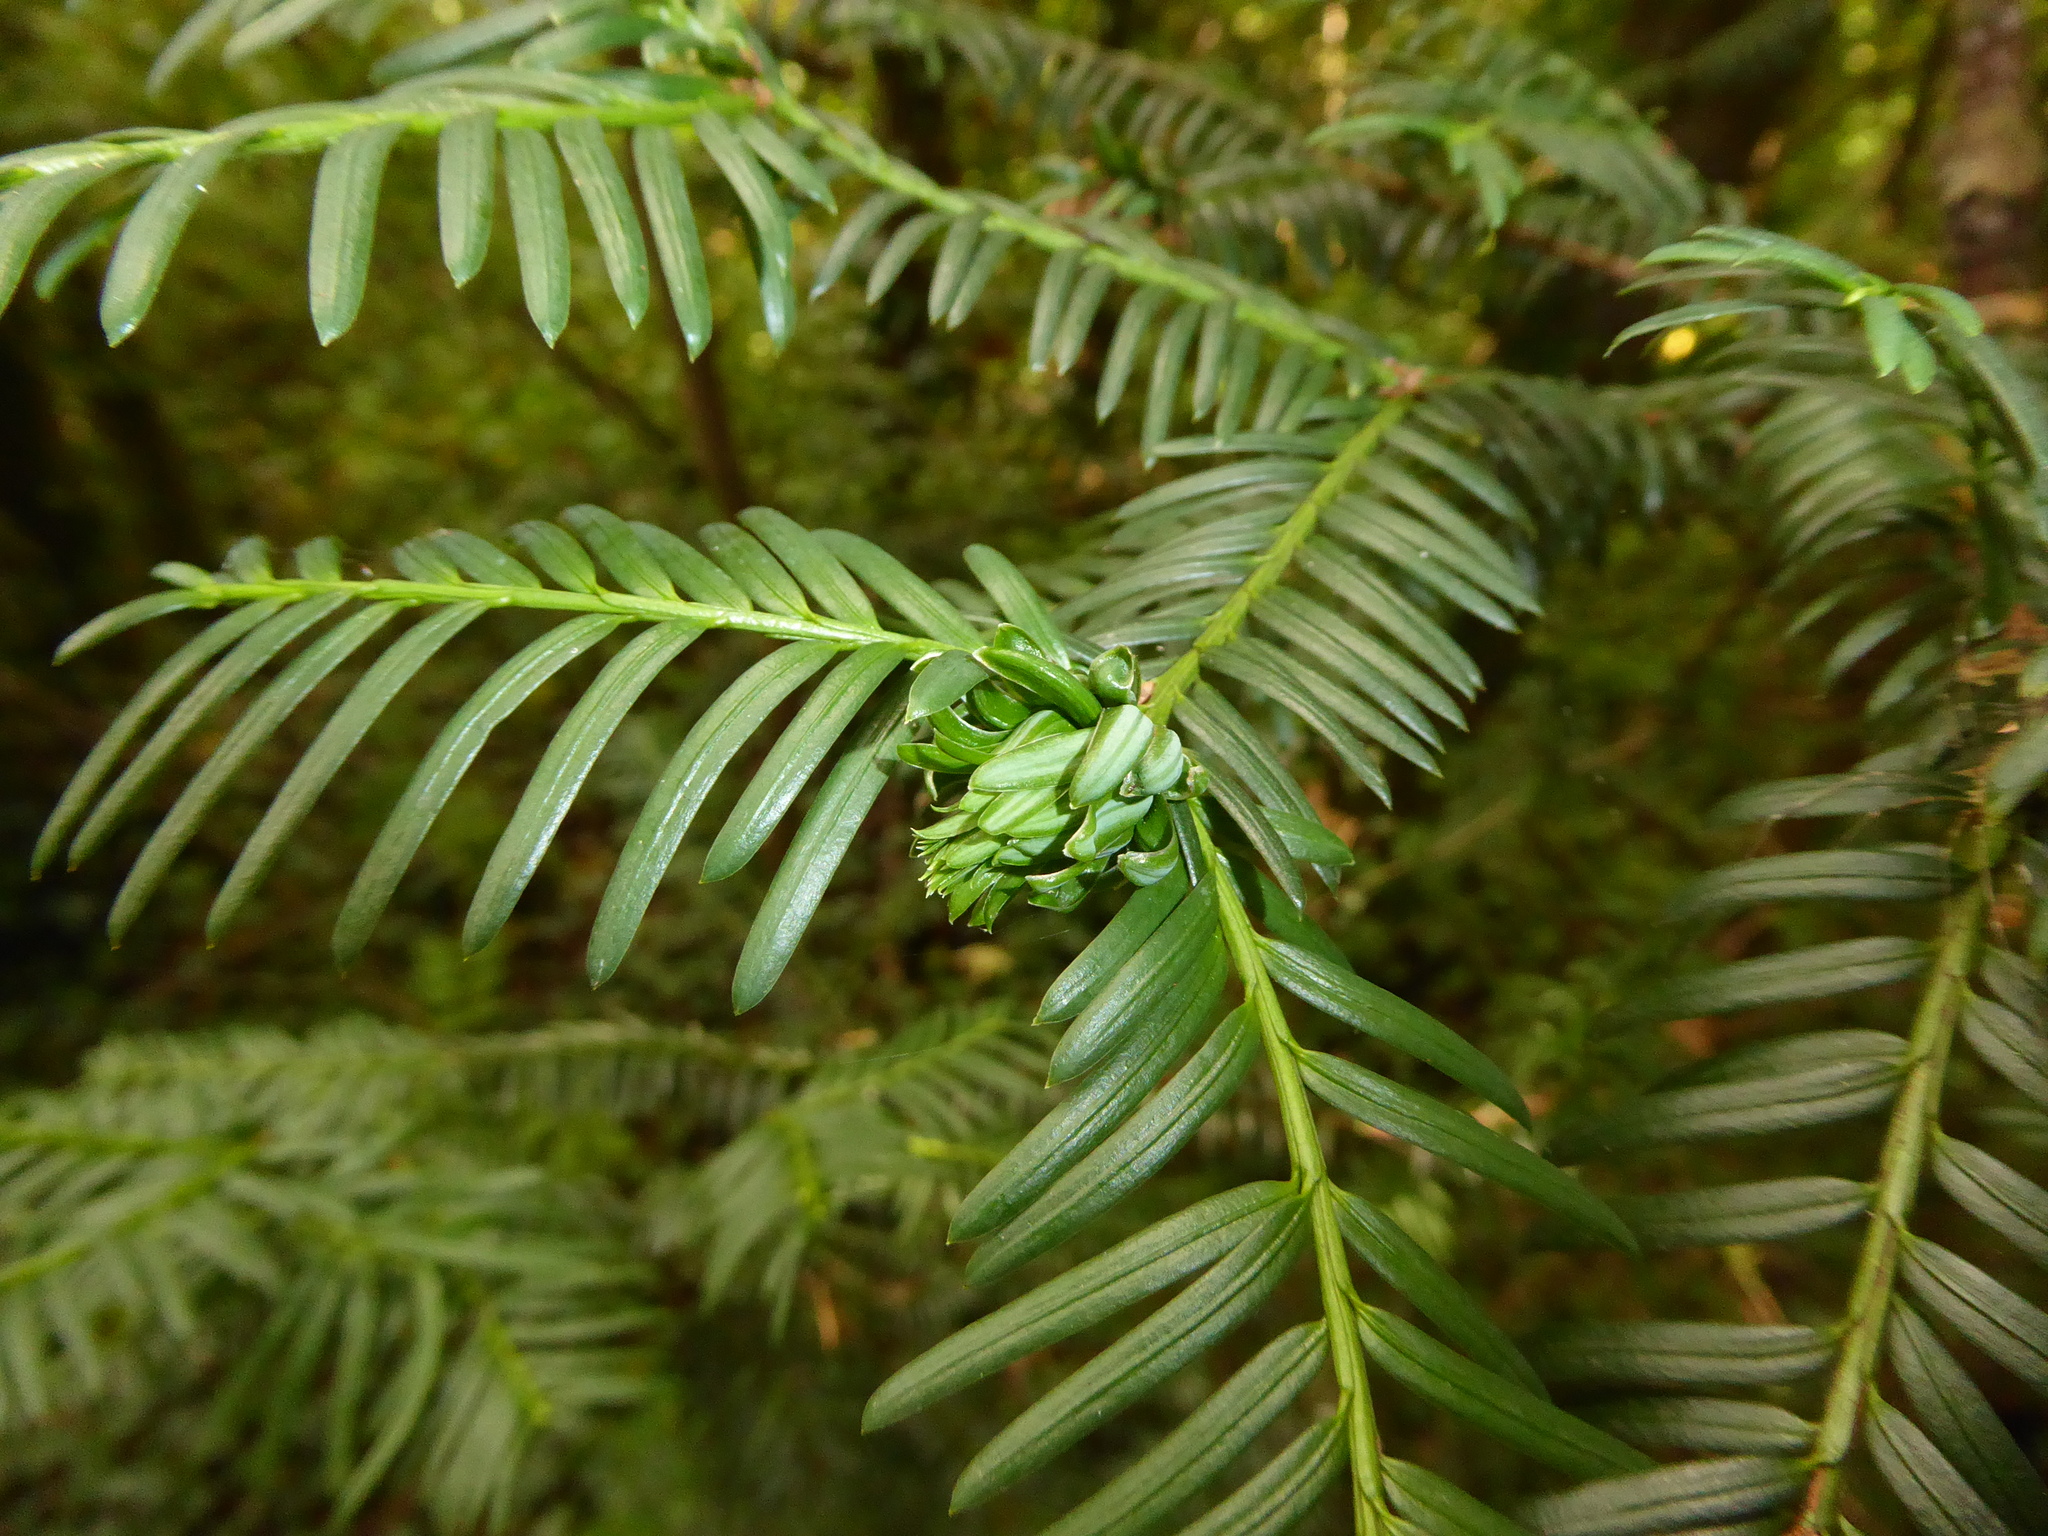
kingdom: Animalia
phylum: Arthropoda
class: Insecta
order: Diptera
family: Cecidomyiidae
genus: Taxomyia
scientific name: Taxomyia taxi
